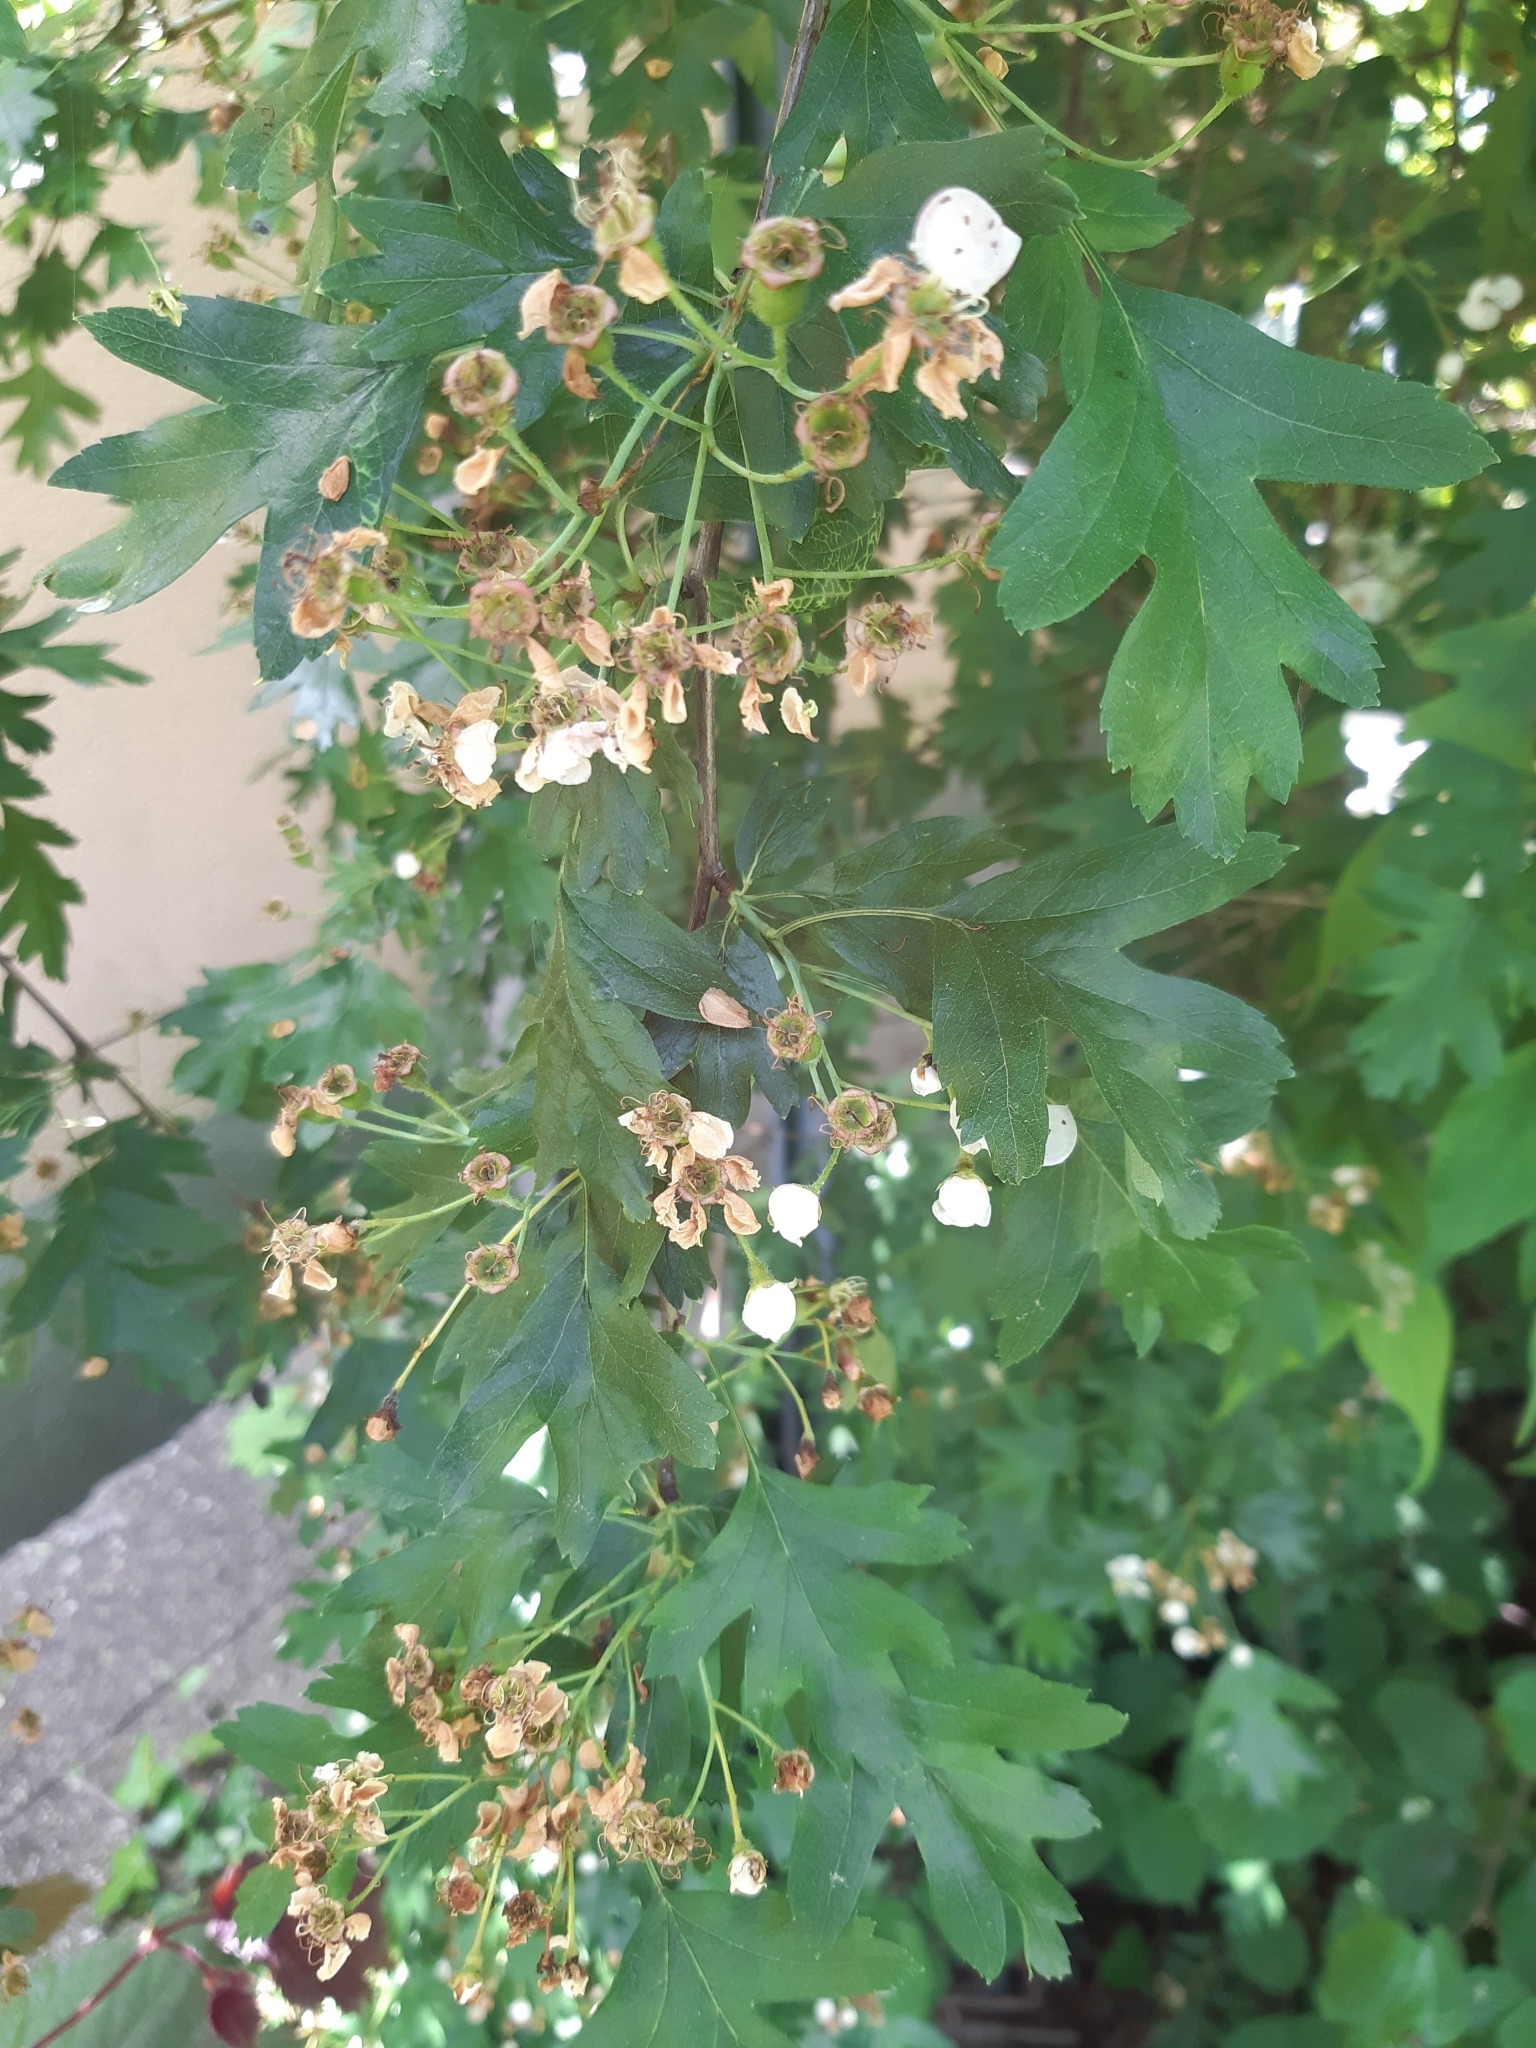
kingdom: Plantae
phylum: Tracheophyta
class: Magnoliopsida
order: Rosales
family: Rosaceae
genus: Crataegus
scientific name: Crataegus monogyna
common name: Hawthorn
